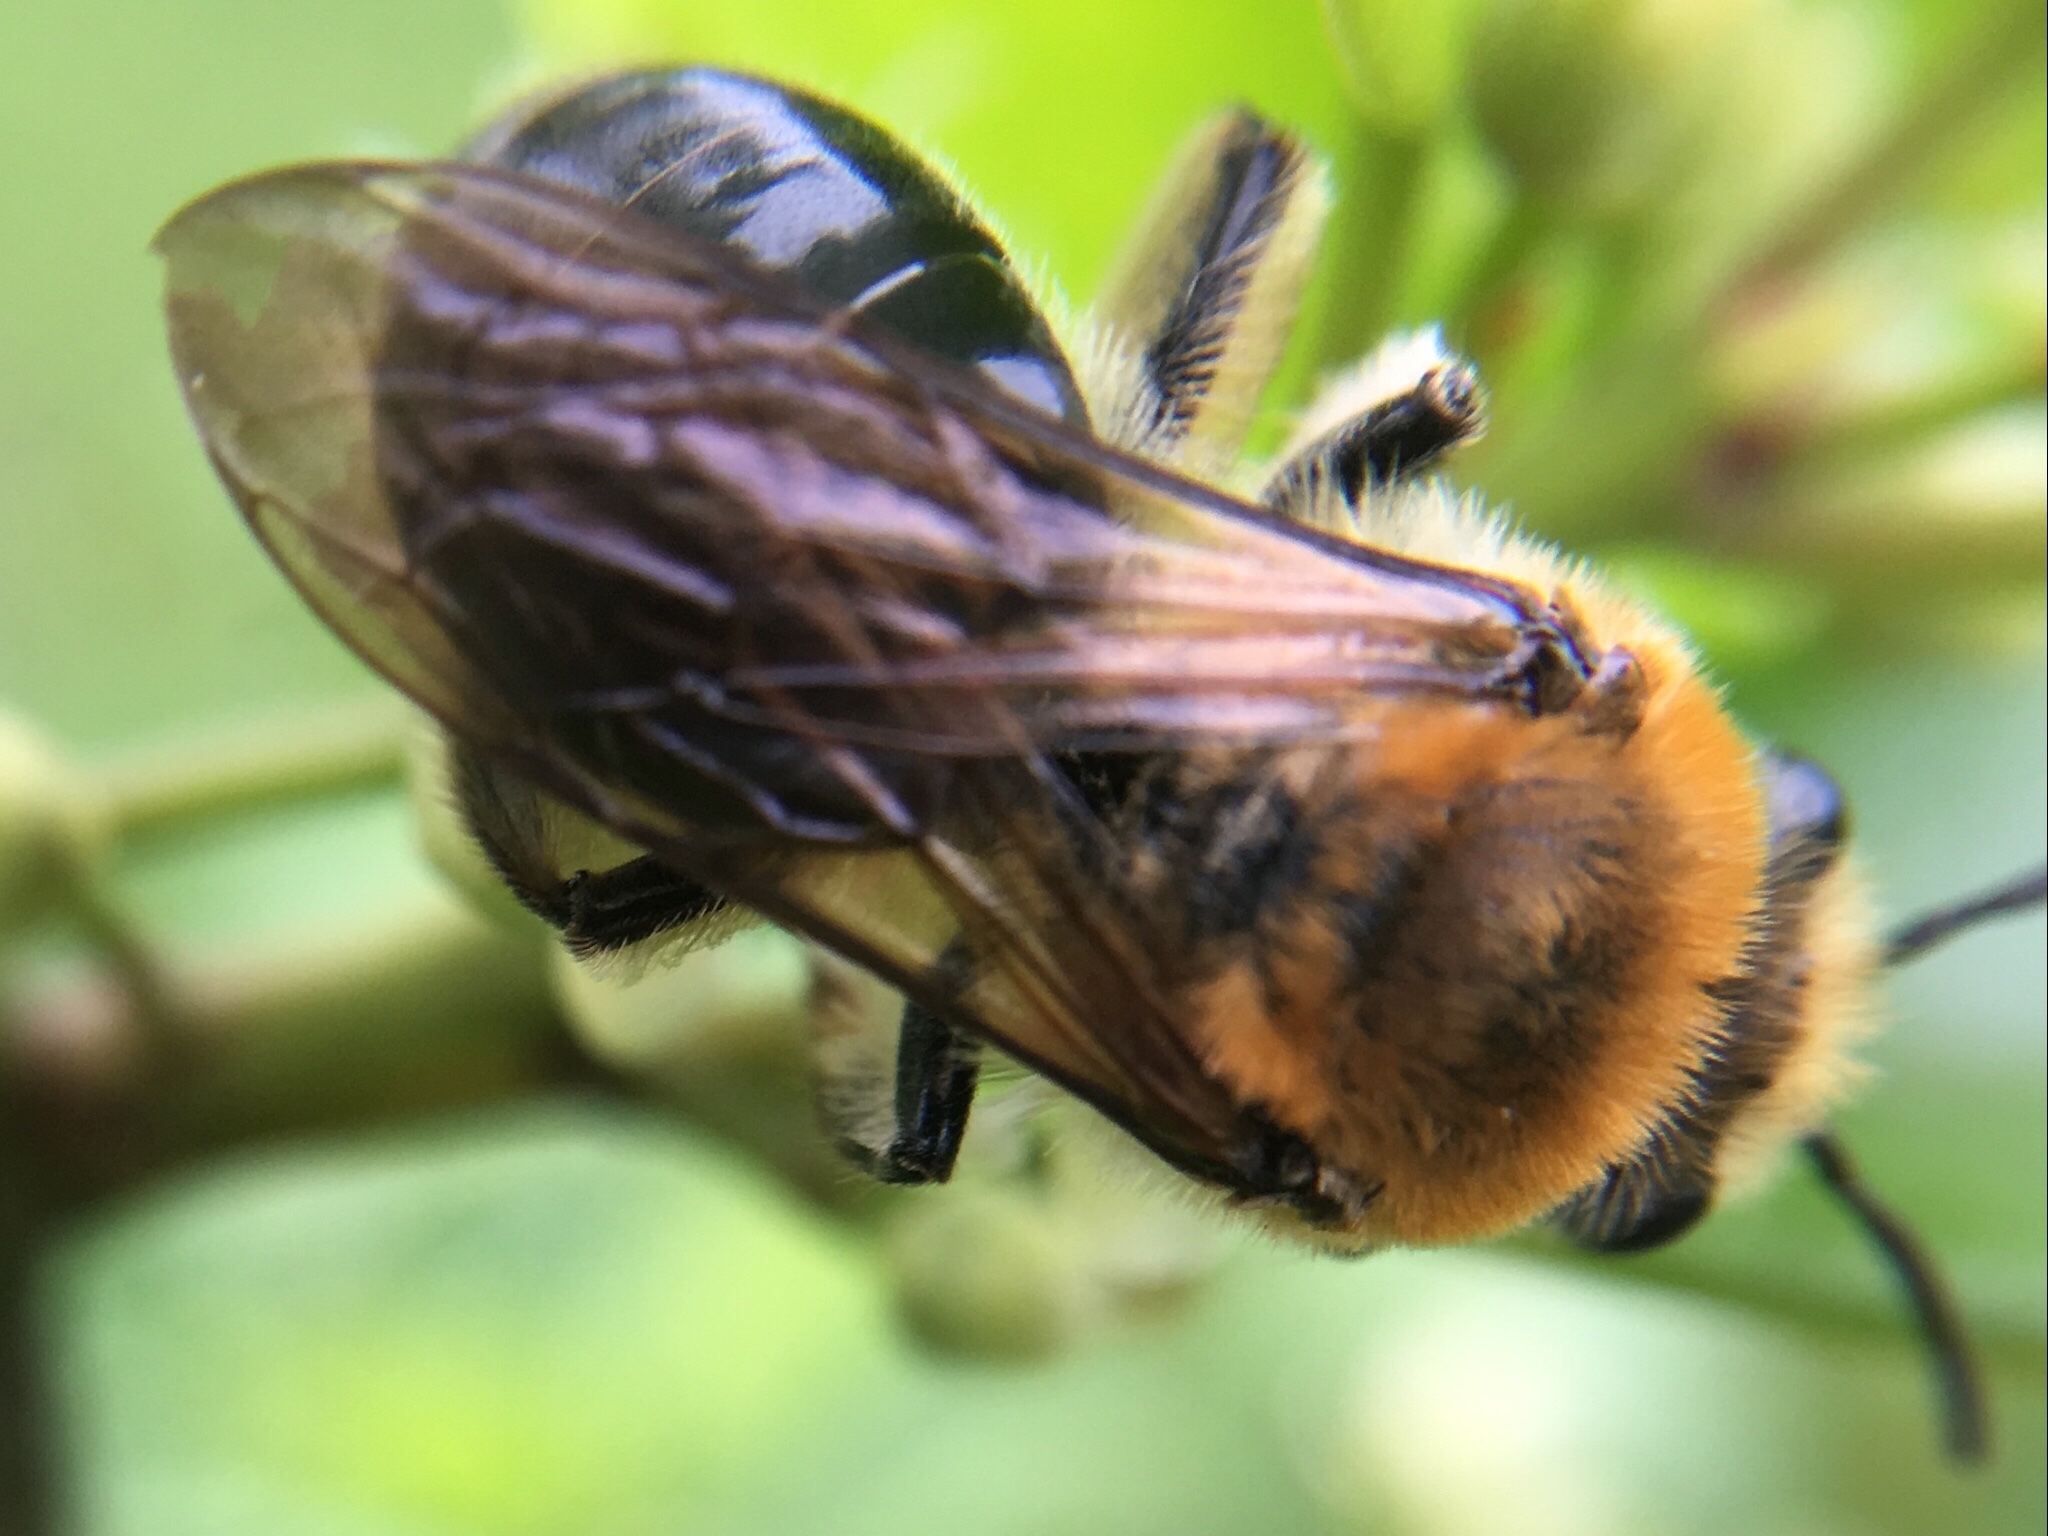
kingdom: Animalia
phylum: Arthropoda
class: Insecta
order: Hymenoptera
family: Colletidae
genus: Colletes
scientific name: Colletes thoracicus
